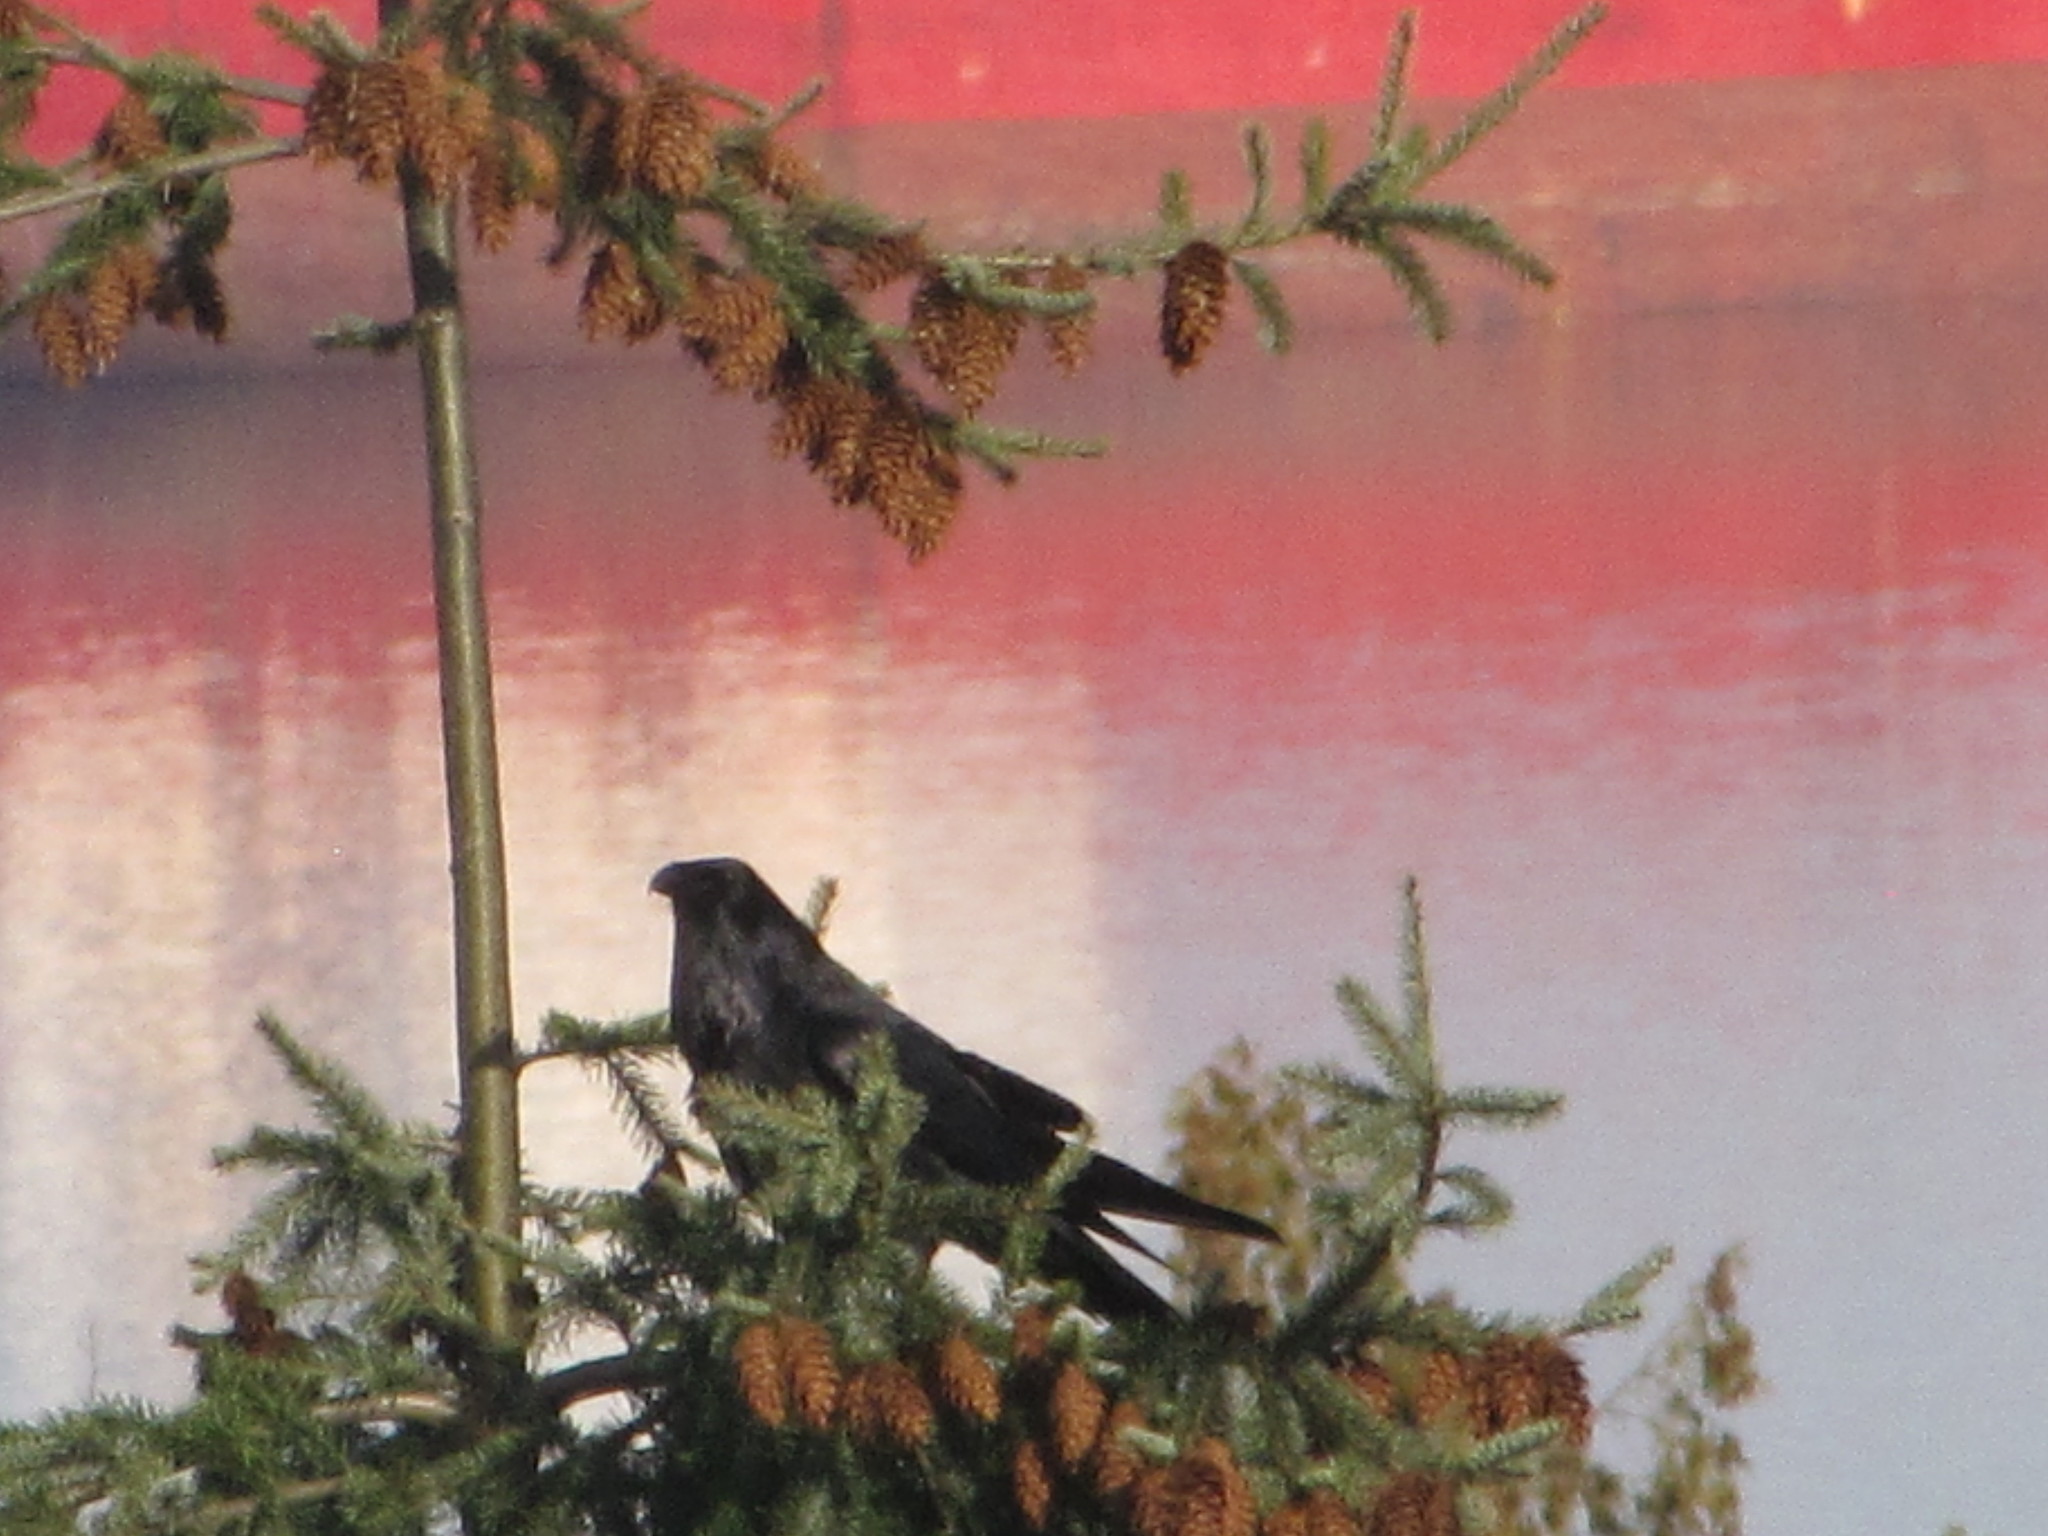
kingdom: Animalia
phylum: Chordata
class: Aves
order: Passeriformes
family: Corvidae
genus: Corvus
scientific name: Corvus corax
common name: Common raven
